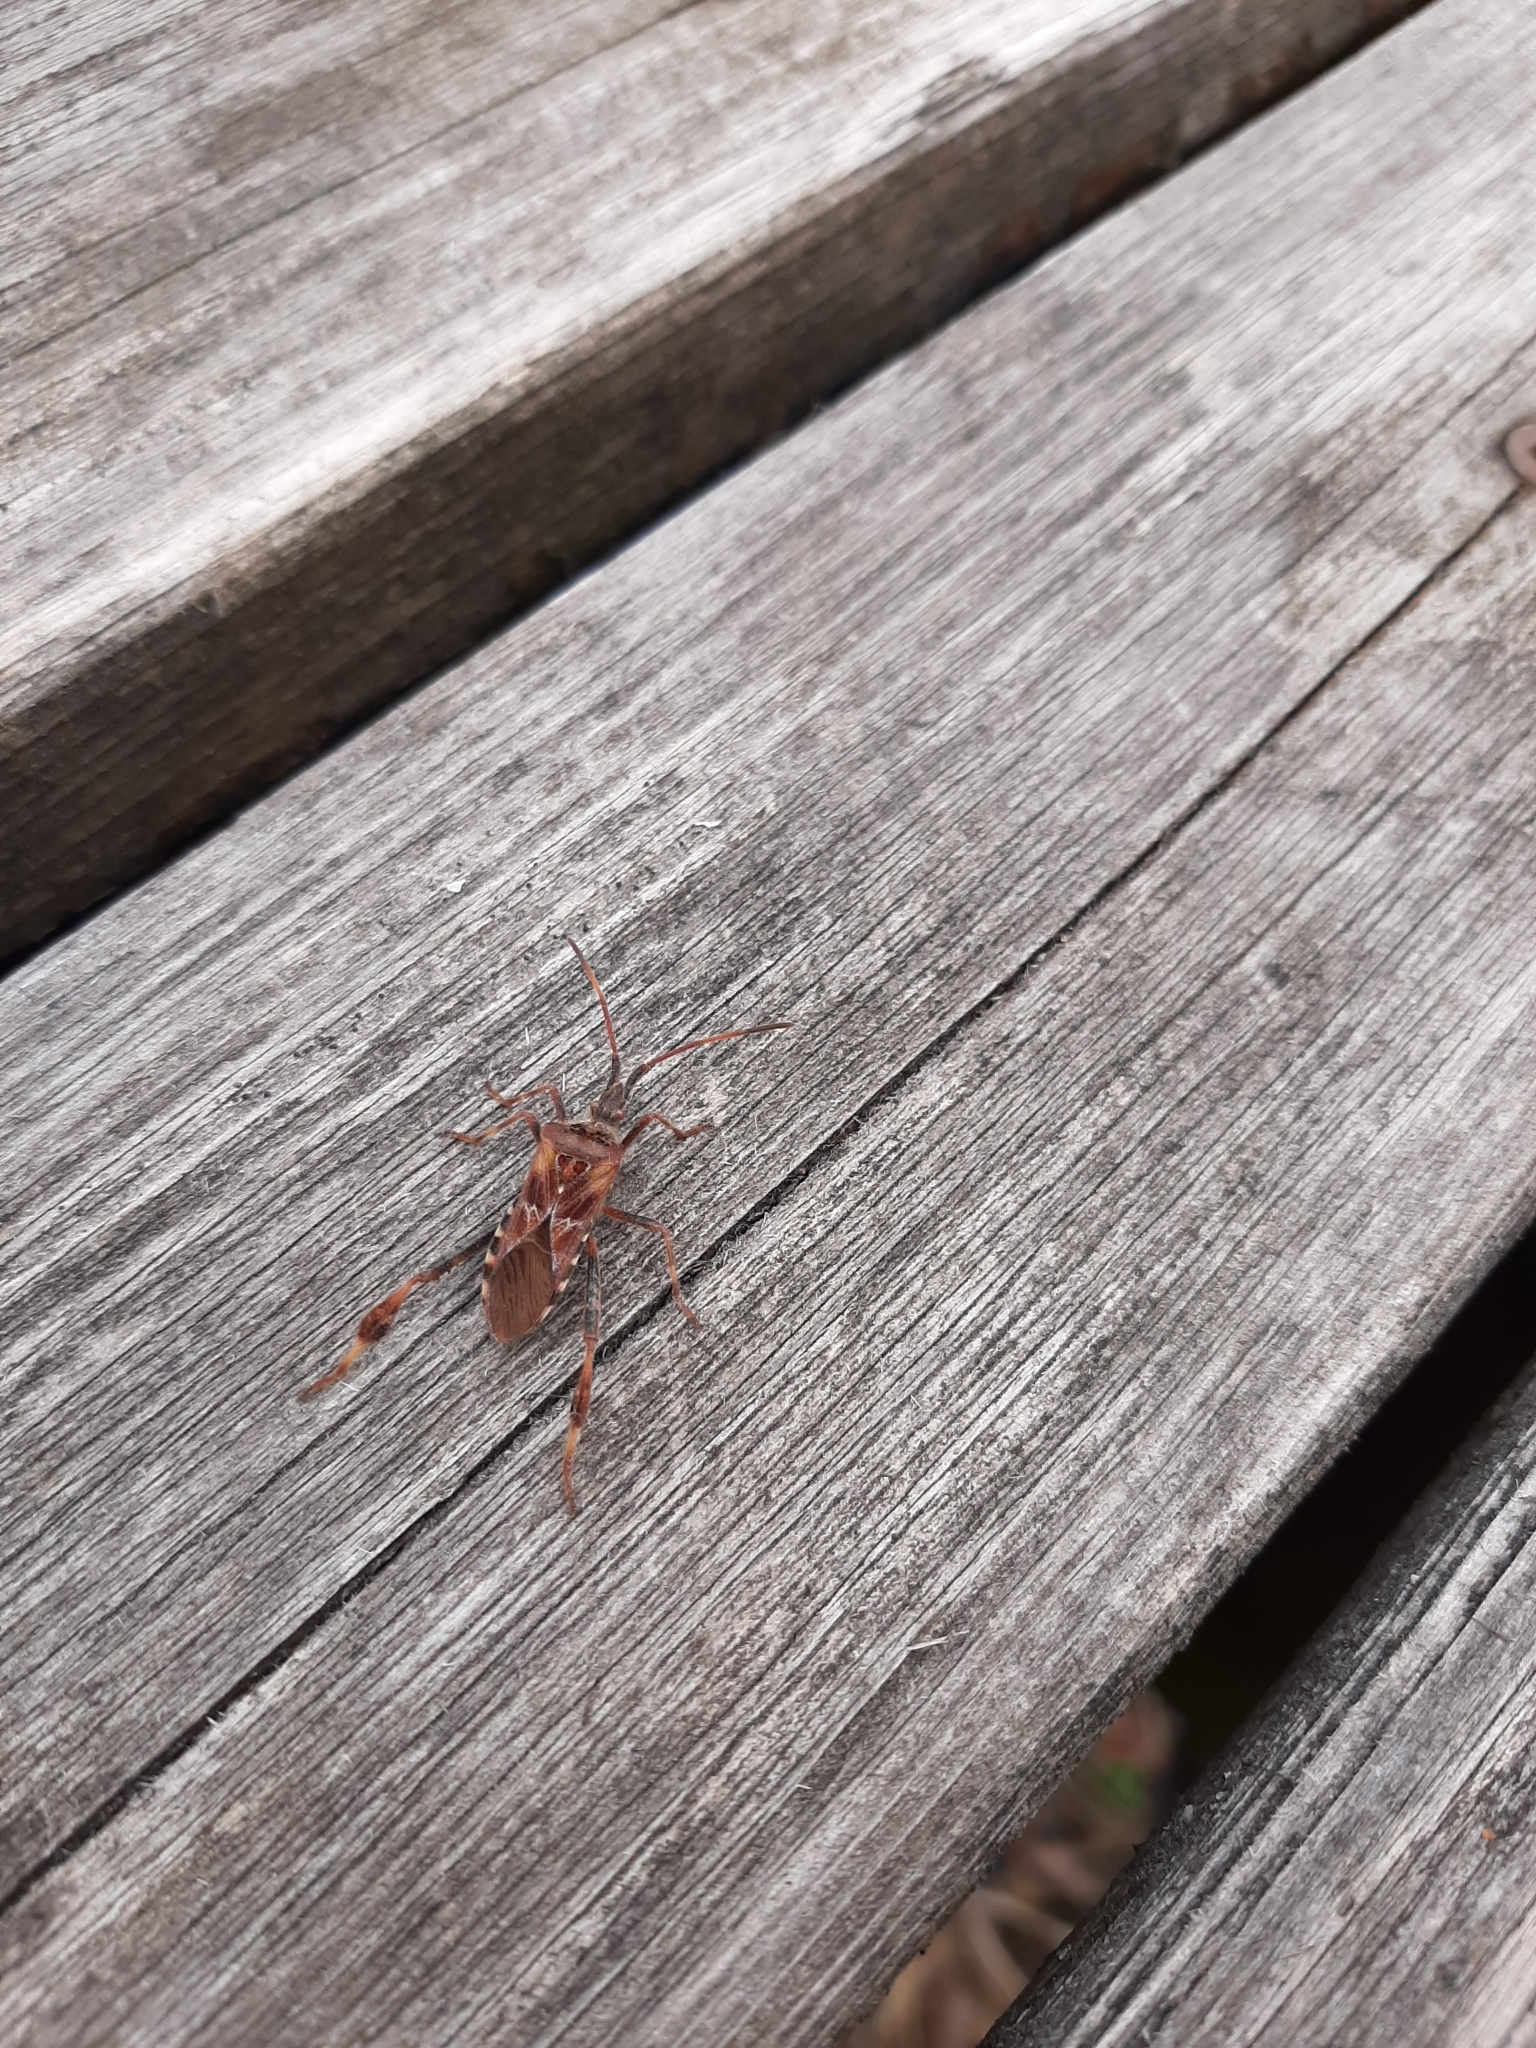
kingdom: Animalia
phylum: Arthropoda
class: Insecta
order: Hemiptera
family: Coreidae
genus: Leptoglossus
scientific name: Leptoglossus occidentalis
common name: Western conifer-seed bug
